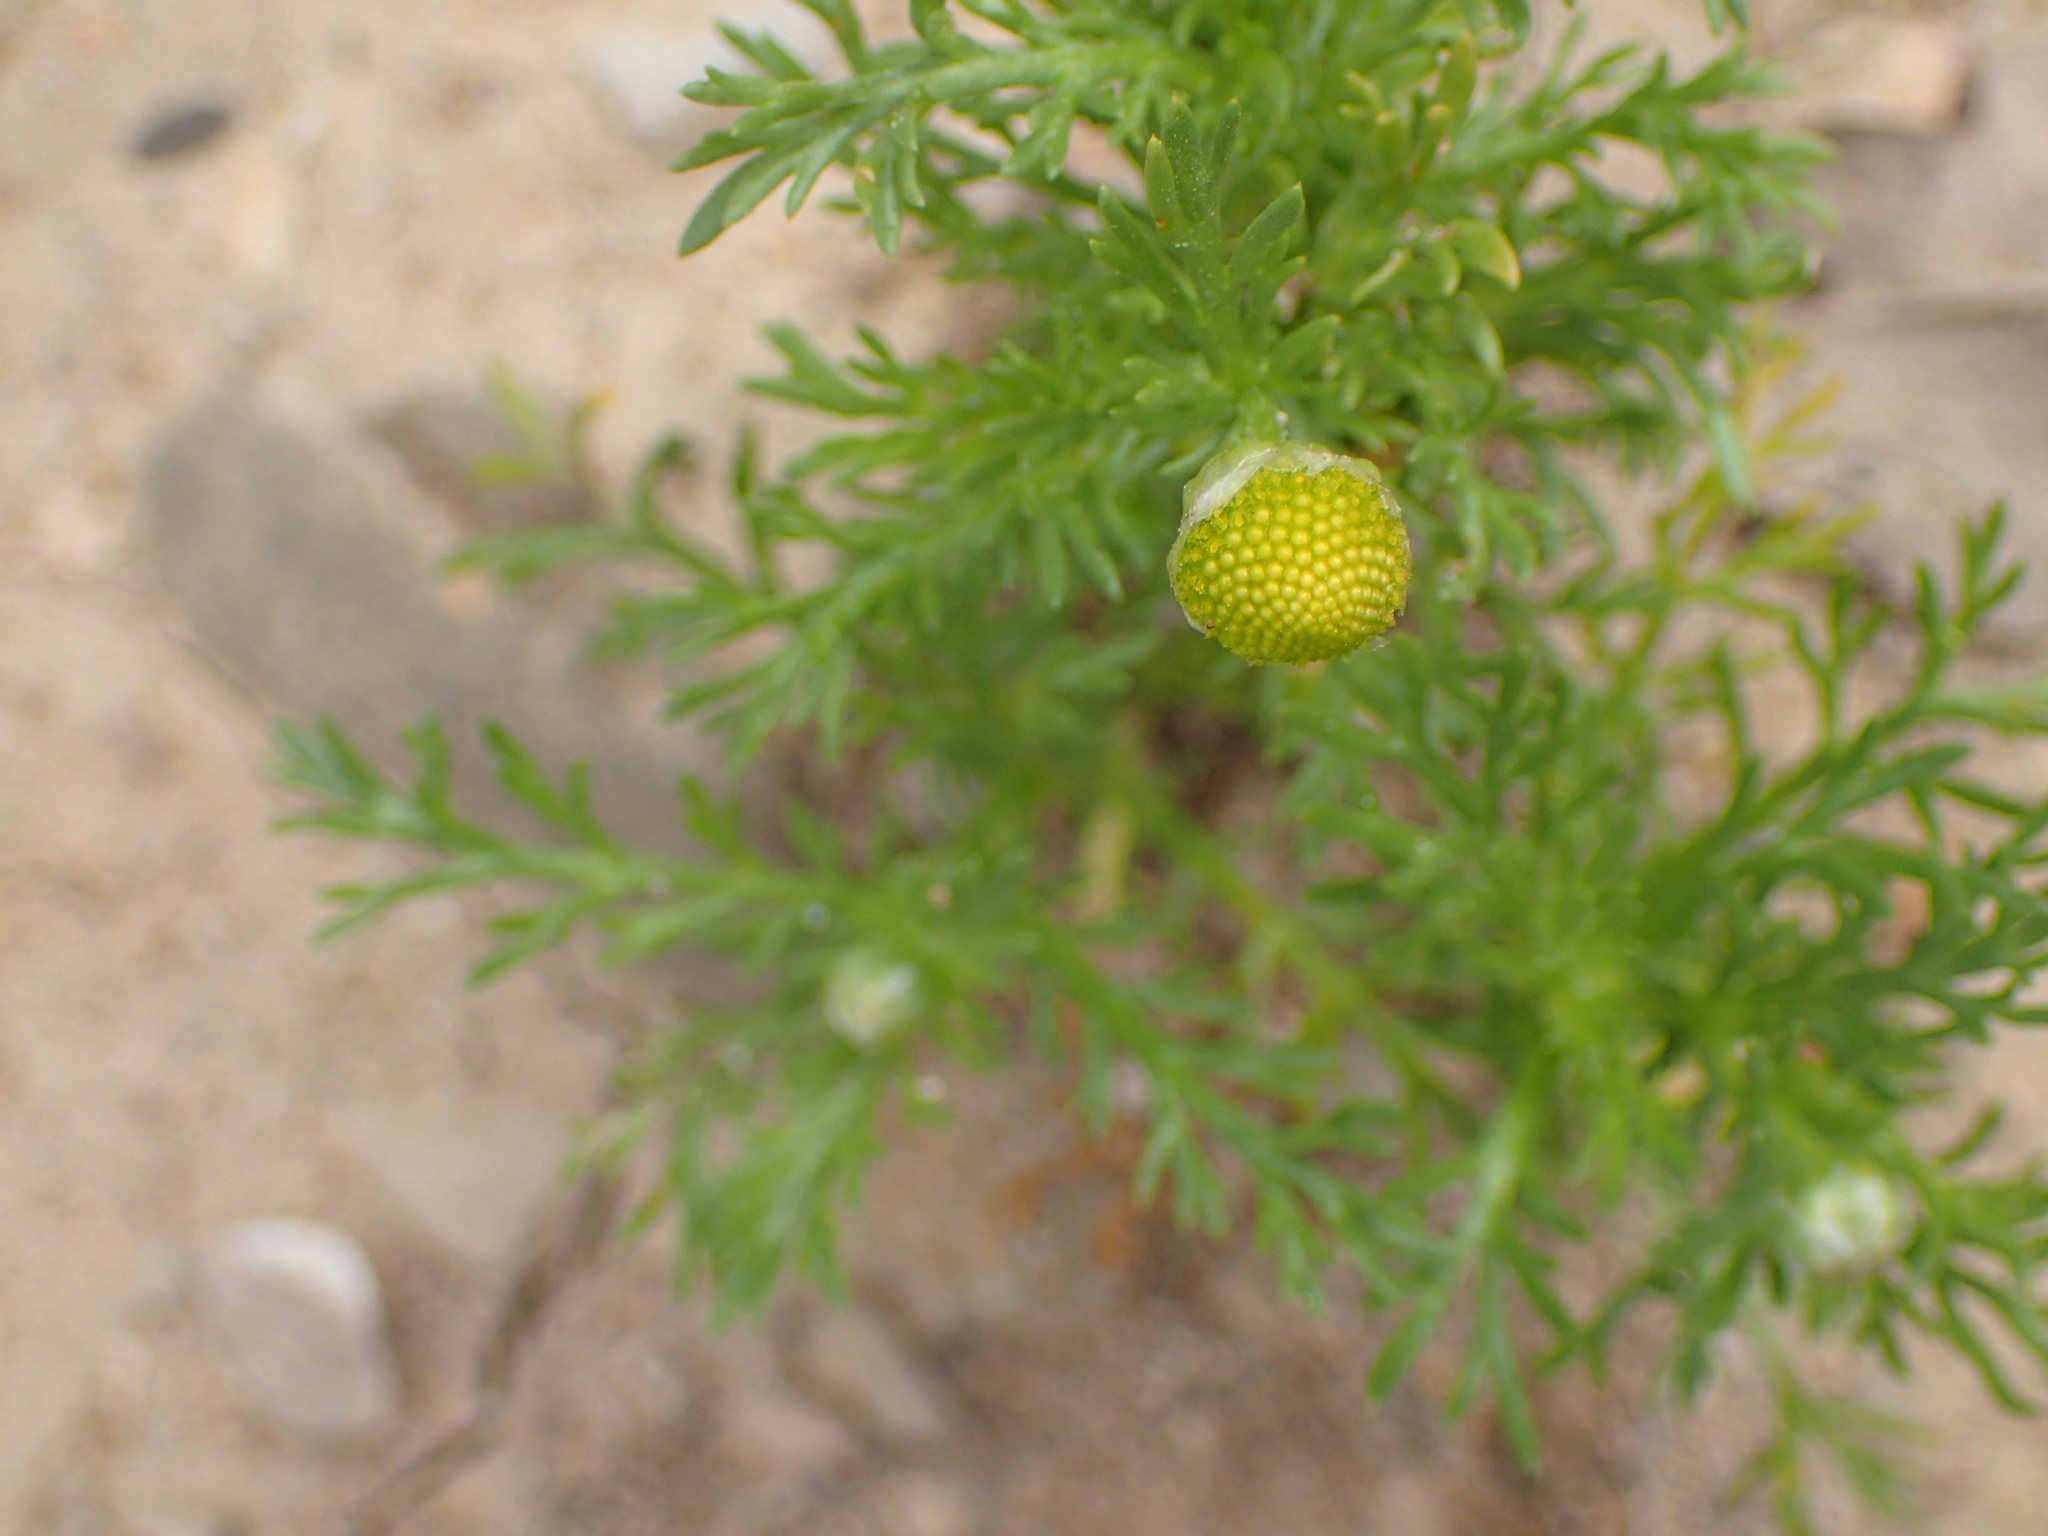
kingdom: Plantae
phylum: Tracheophyta
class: Magnoliopsida
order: Asterales
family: Asteraceae
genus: Matricaria
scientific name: Matricaria discoidea
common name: Disc mayweed
